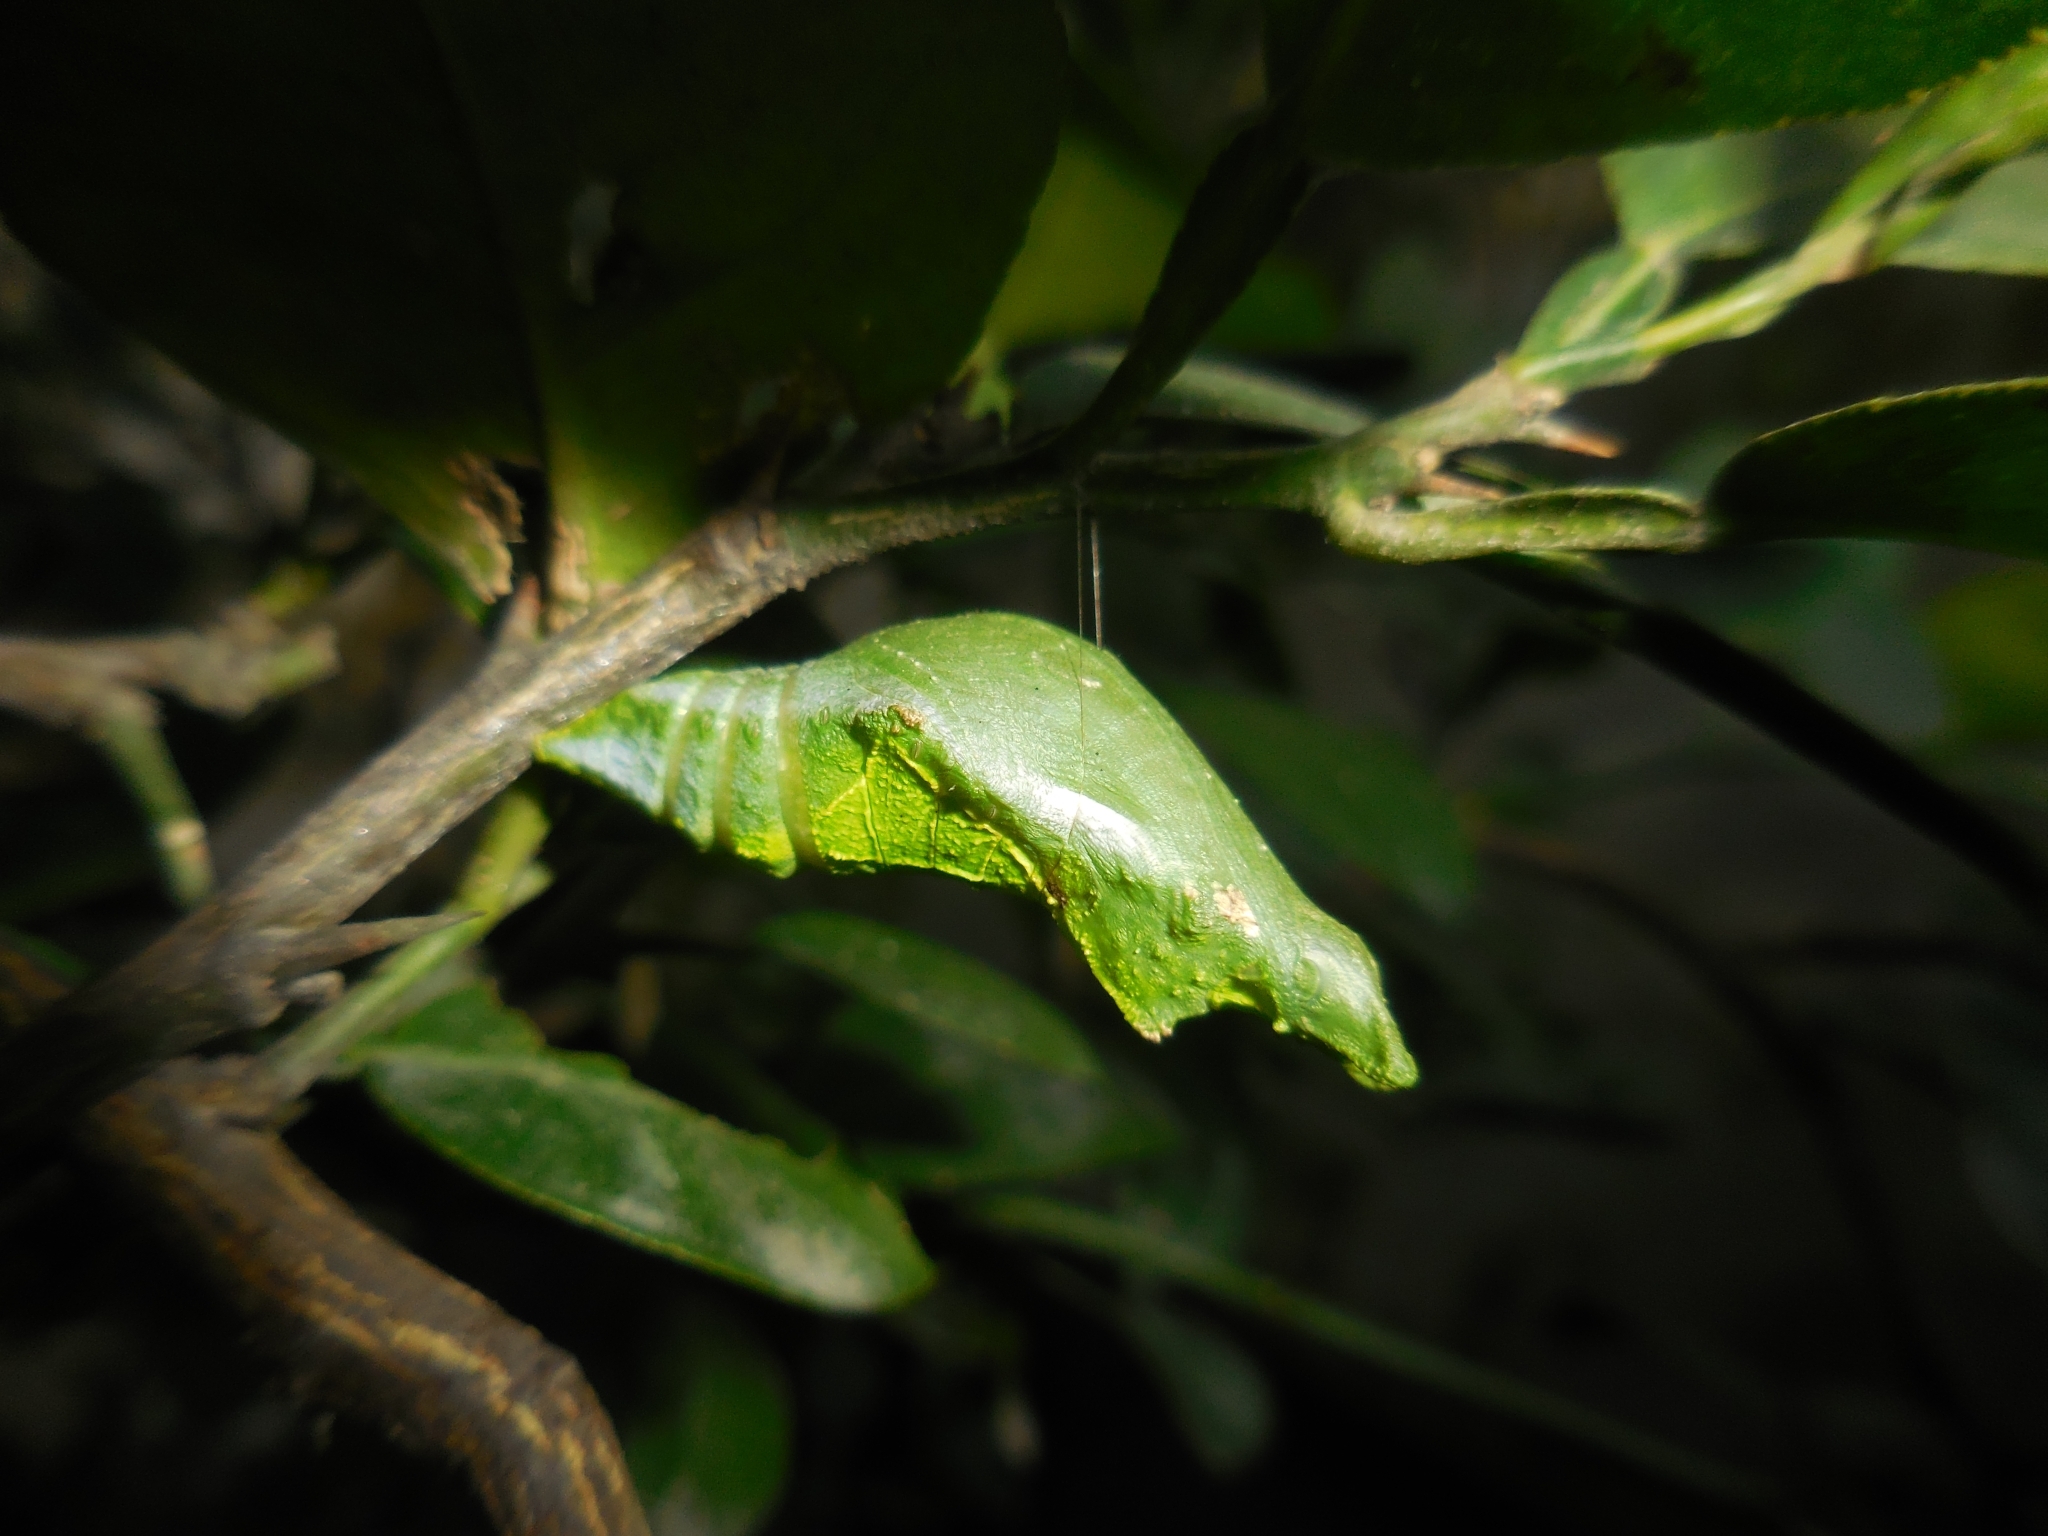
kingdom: Animalia
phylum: Arthropoda
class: Insecta
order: Lepidoptera
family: Papilionidae
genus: Papilio
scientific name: Papilio demoleus
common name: Lime butterfly
